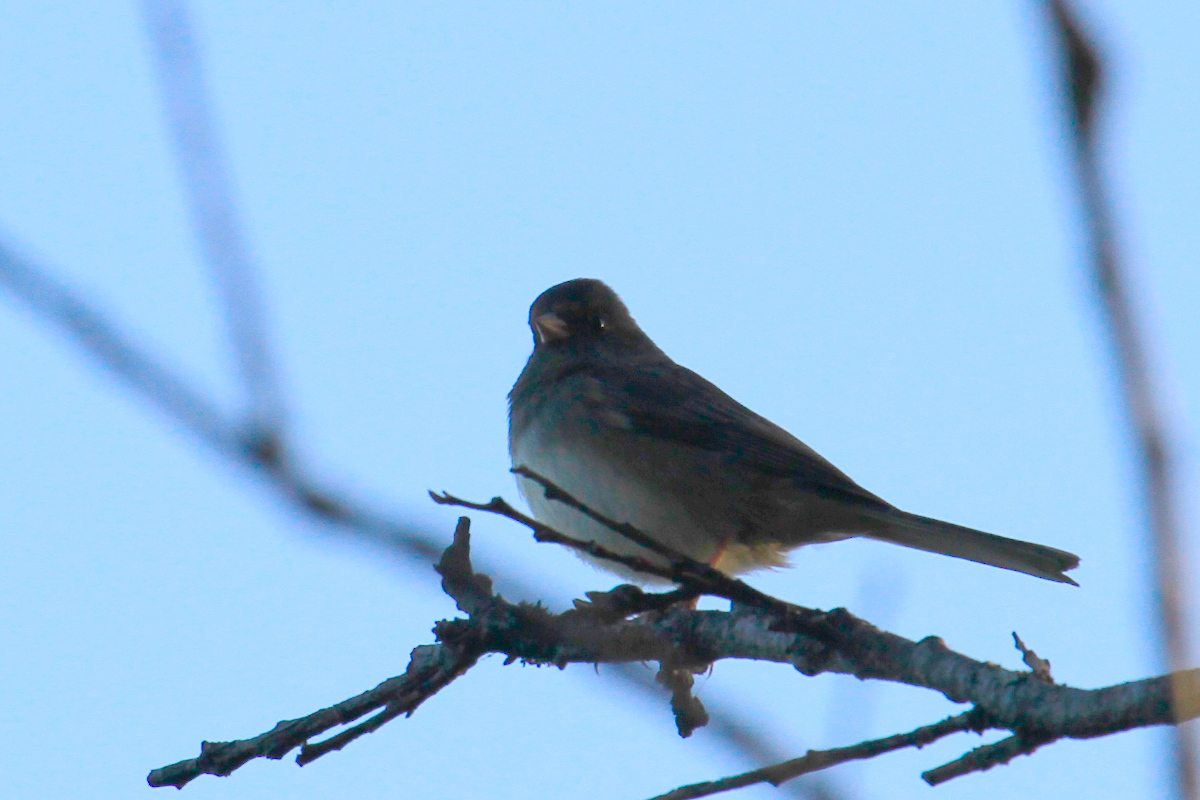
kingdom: Animalia
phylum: Chordata
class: Aves
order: Passeriformes
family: Passerellidae
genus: Junco
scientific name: Junco hyemalis
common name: Dark-eyed junco
